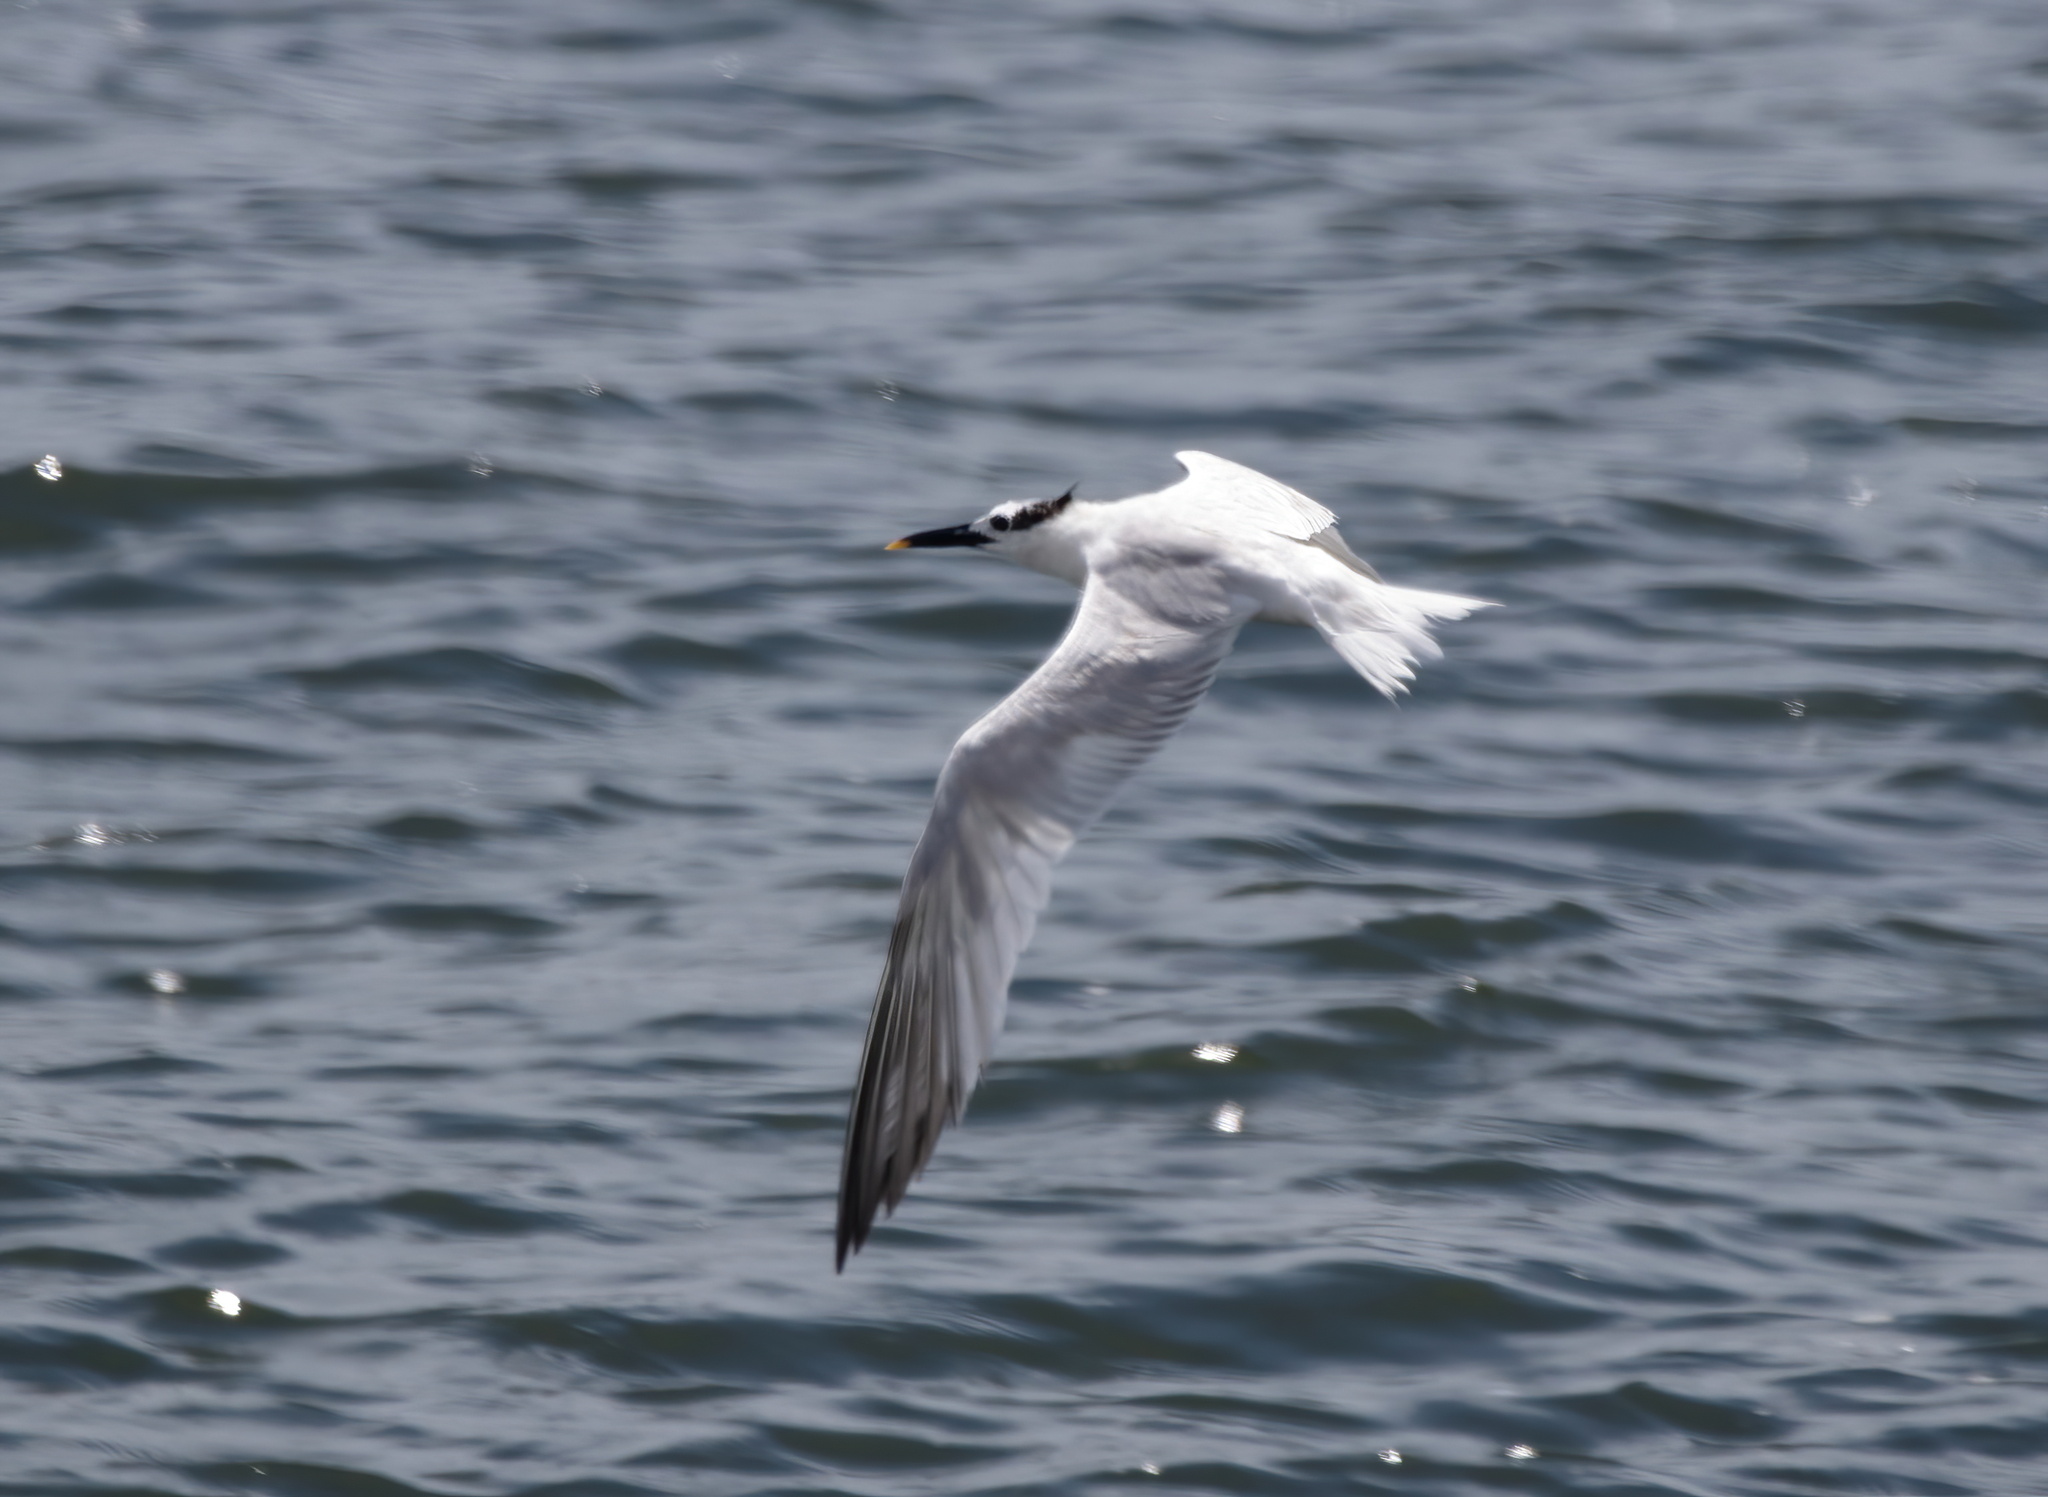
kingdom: Animalia
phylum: Chordata
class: Aves
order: Charadriiformes
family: Laridae
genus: Thalasseus
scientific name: Thalasseus sandvicensis
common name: Sandwich tern
